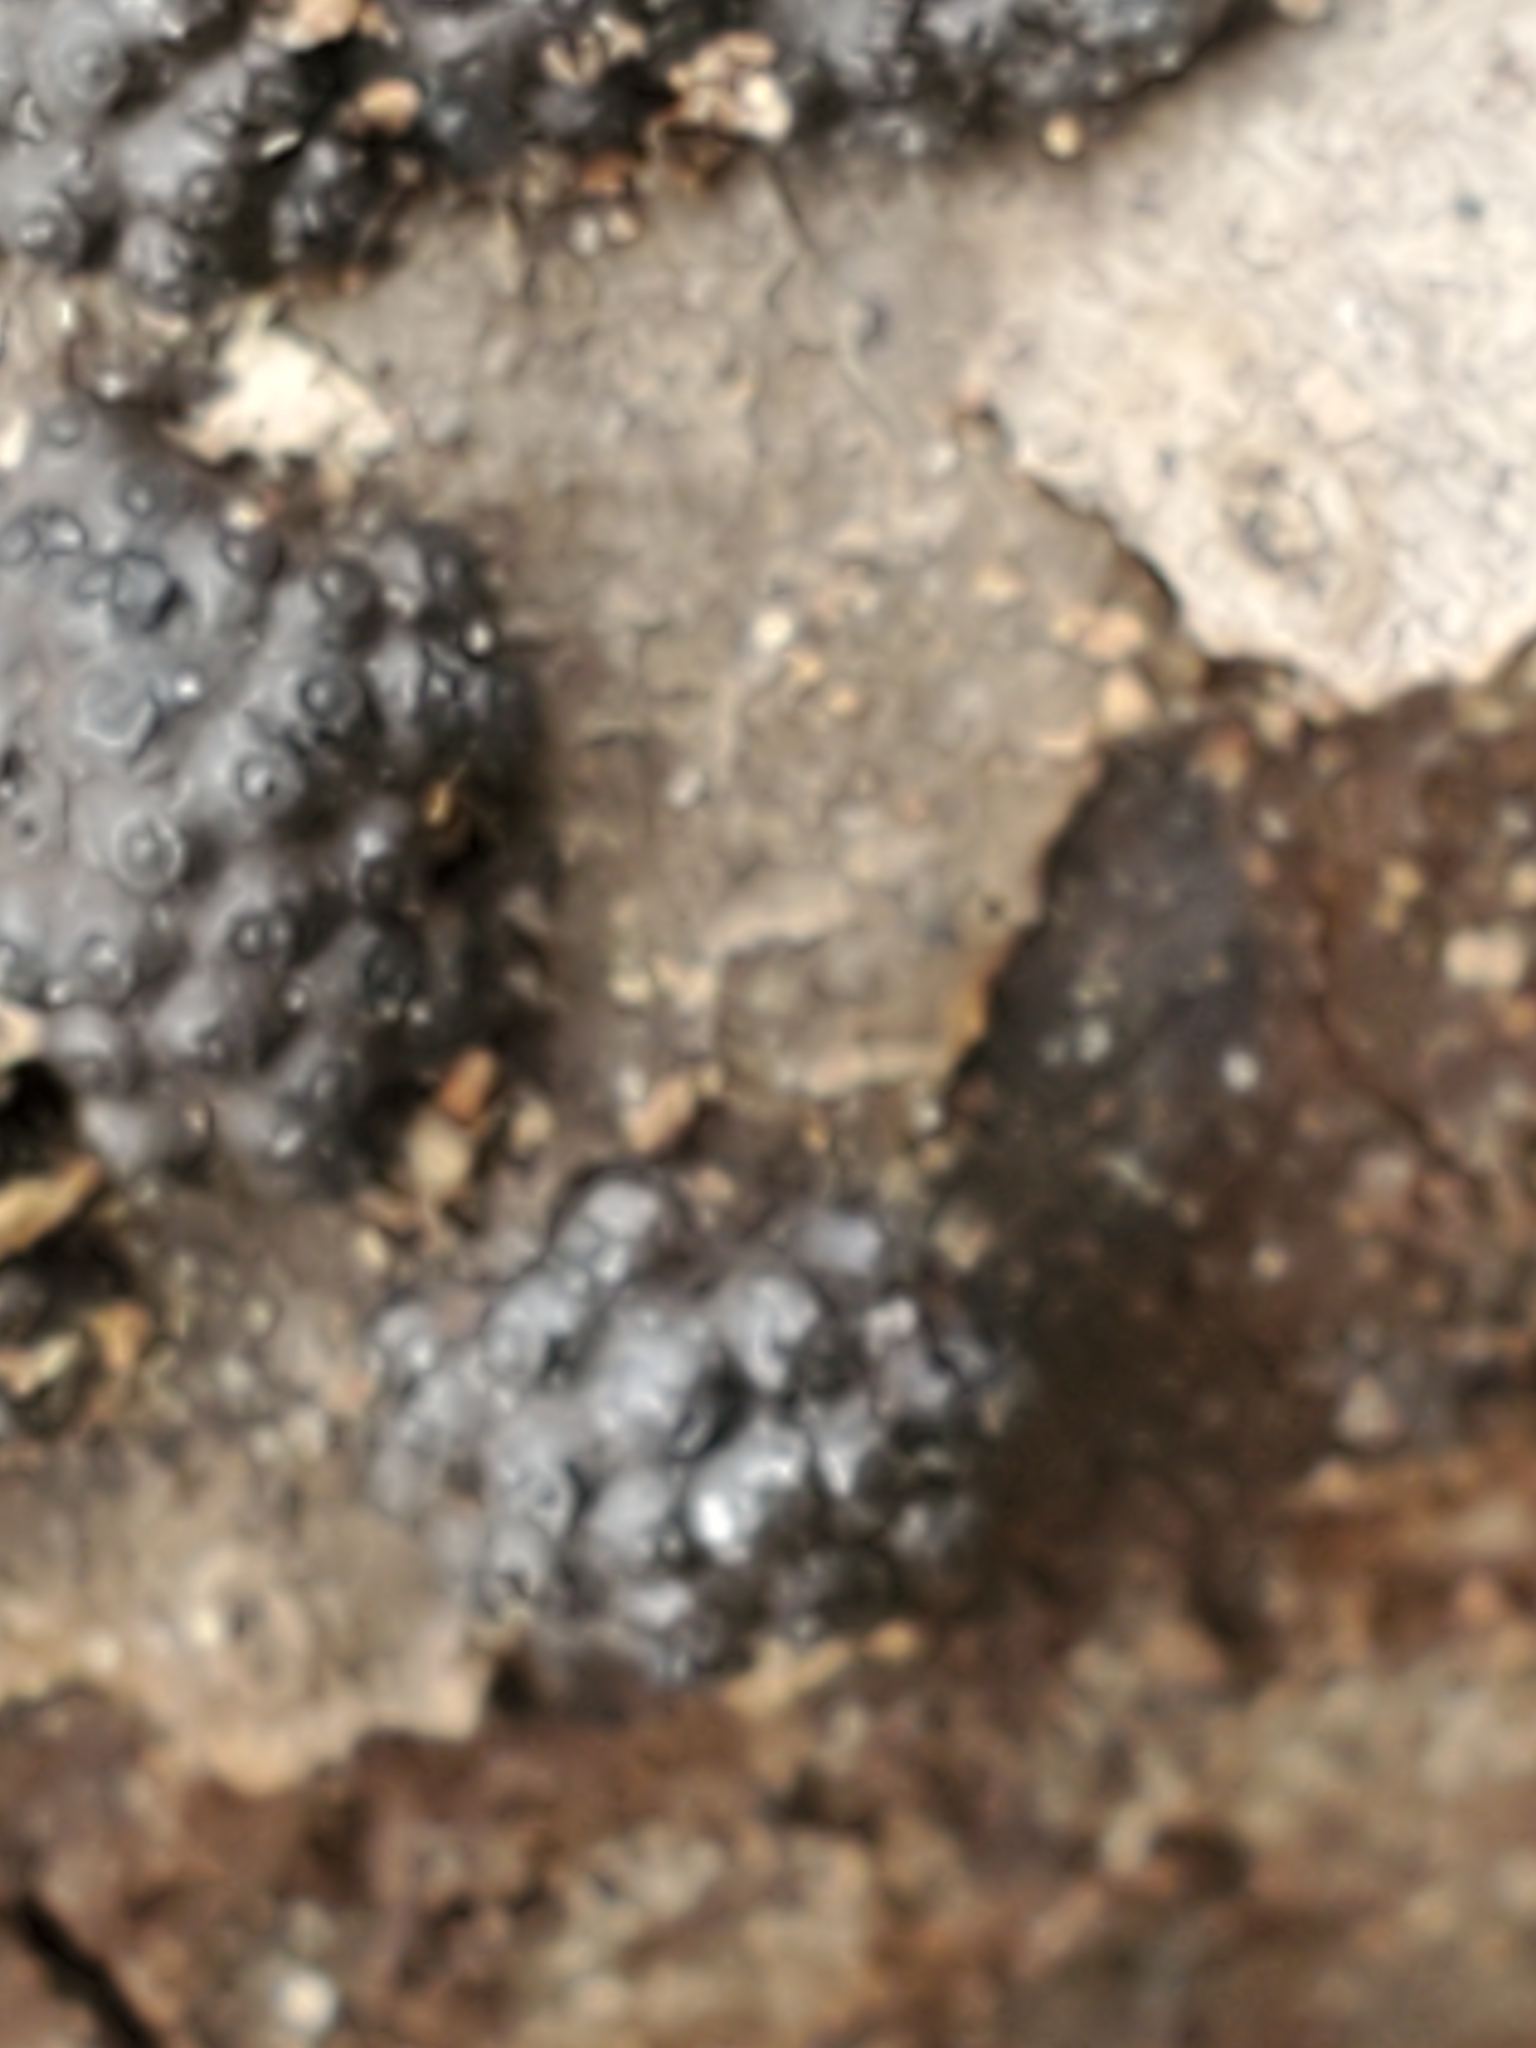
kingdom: Fungi
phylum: Ascomycota
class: Sordariomycetes
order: Xylariales
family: Hypoxylaceae
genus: Annulohypoxylon
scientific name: Annulohypoxylon truncatum
